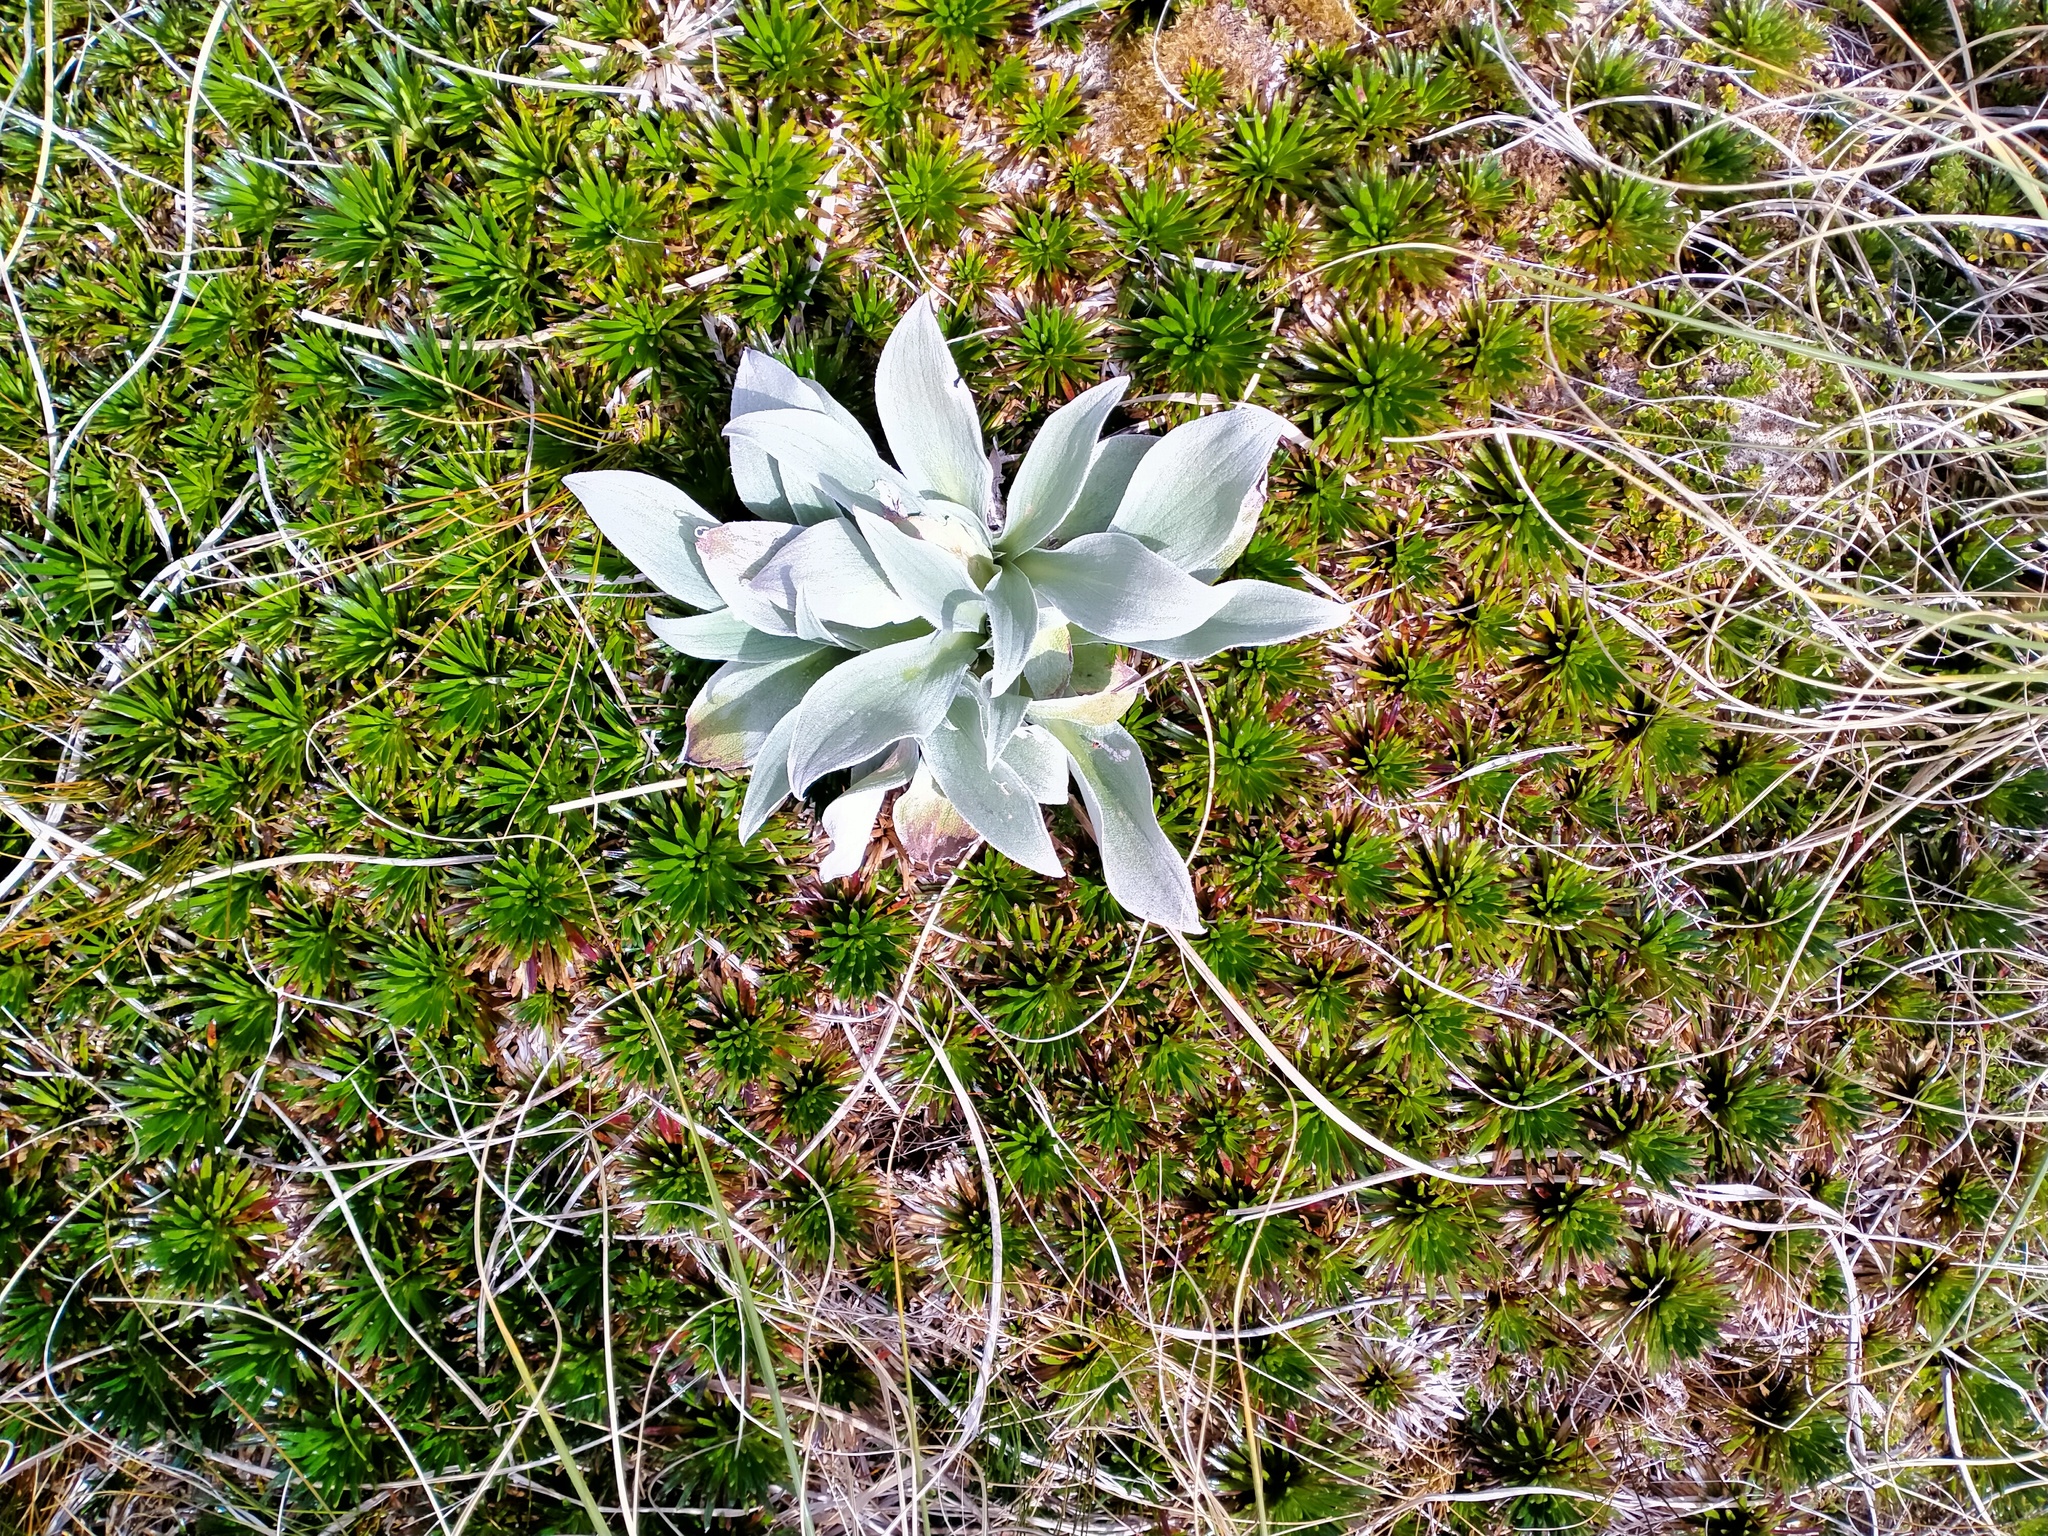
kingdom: Plantae
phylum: Tracheophyta
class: Magnoliopsida
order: Asterales
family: Asteraceae
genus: Pleurophyllum
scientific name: Pleurophyllum hookeri
